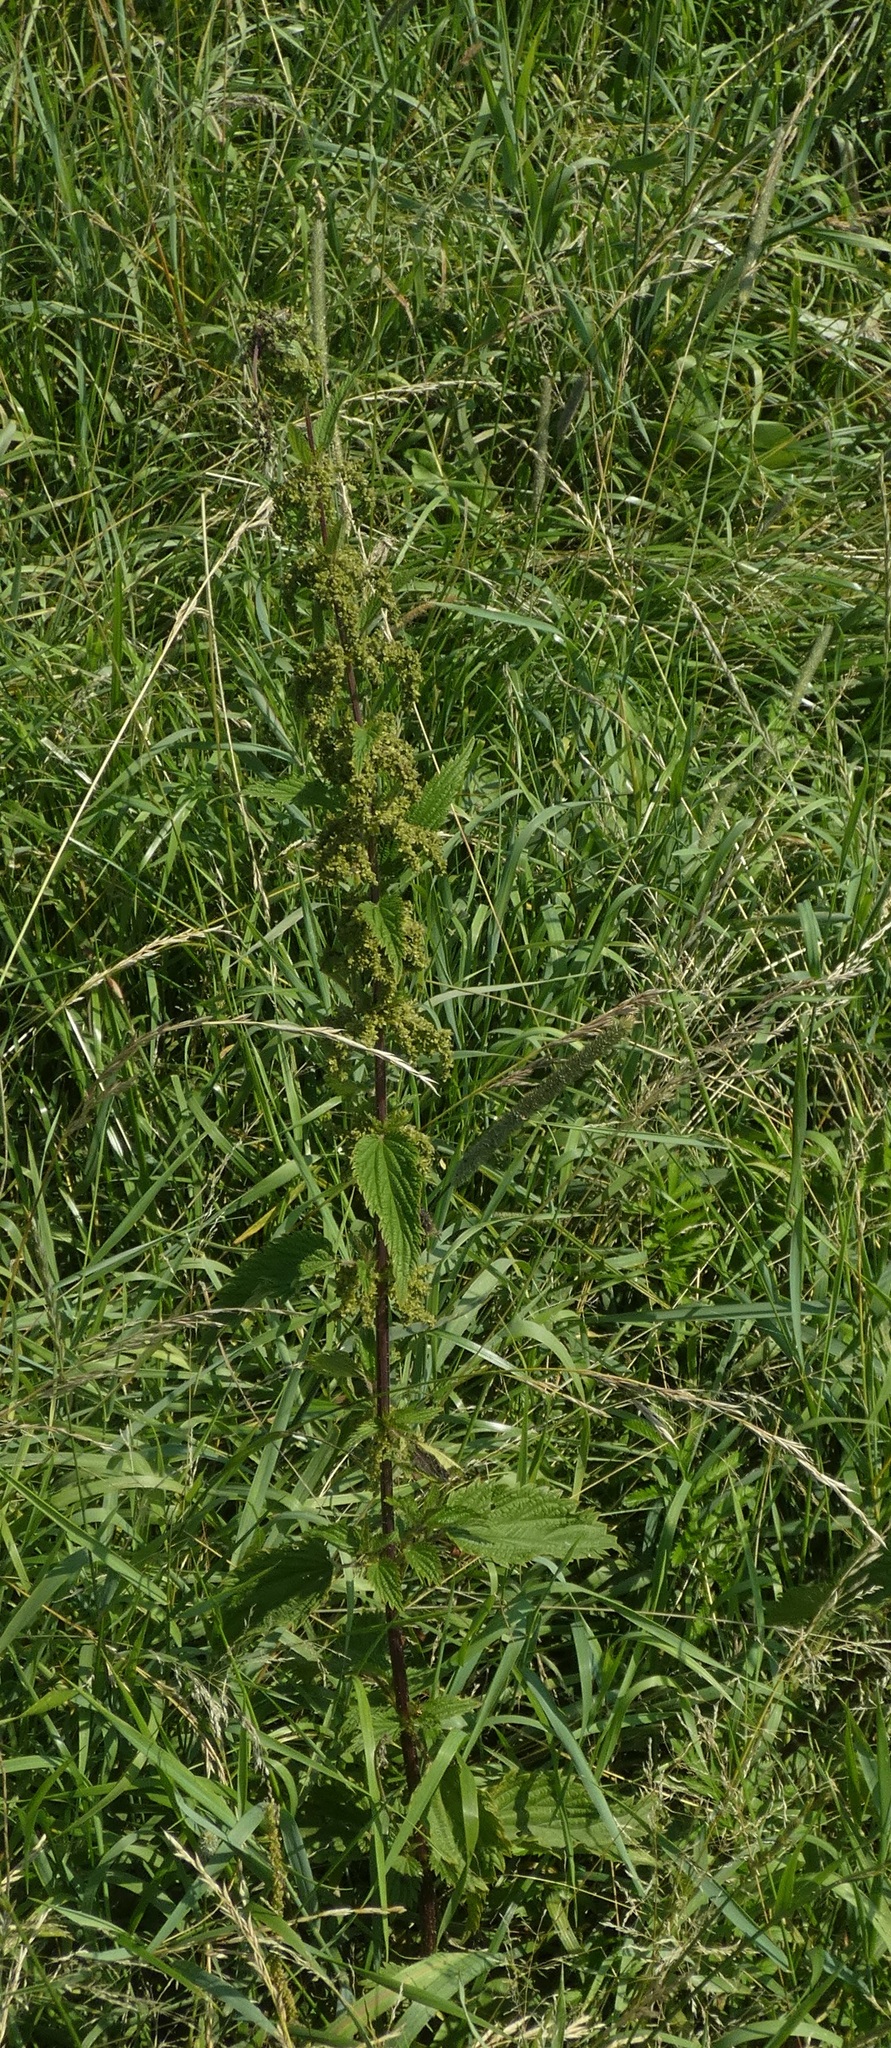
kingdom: Plantae
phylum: Tracheophyta
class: Magnoliopsida
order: Rosales
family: Urticaceae
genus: Urtica
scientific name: Urtica dioica
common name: Common nettle
